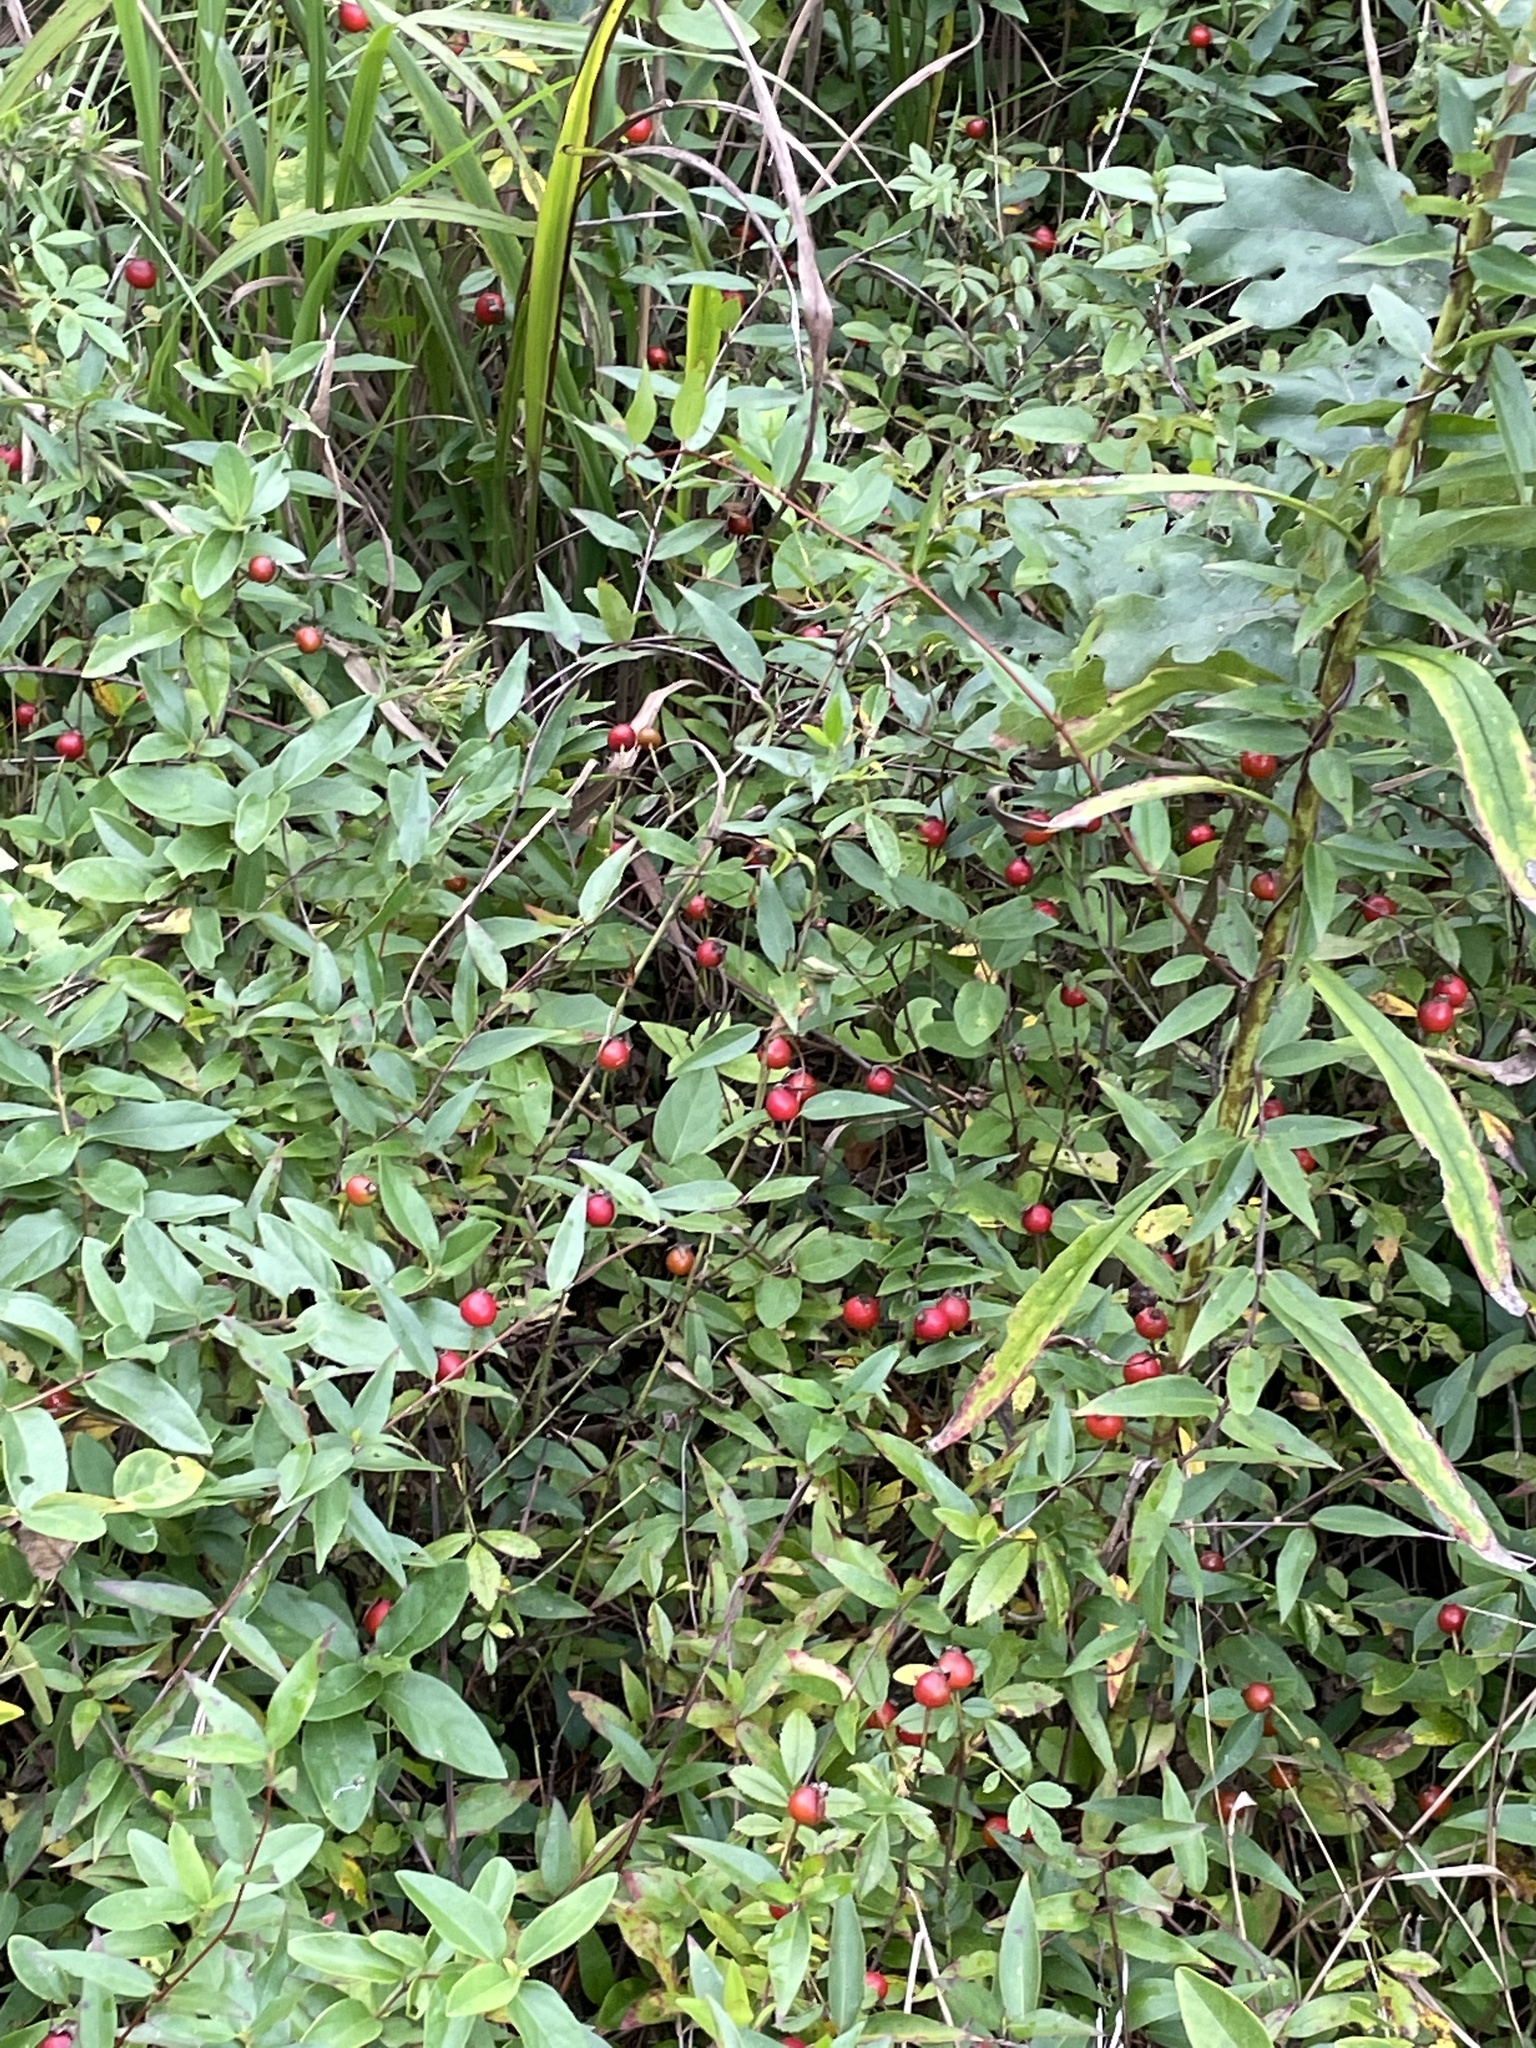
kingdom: Plantae
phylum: Tracheophyta
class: Magnoliopsida
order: Rosales
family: Rosaceae
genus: Rosa
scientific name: Rosa carolina
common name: Pasture rose
